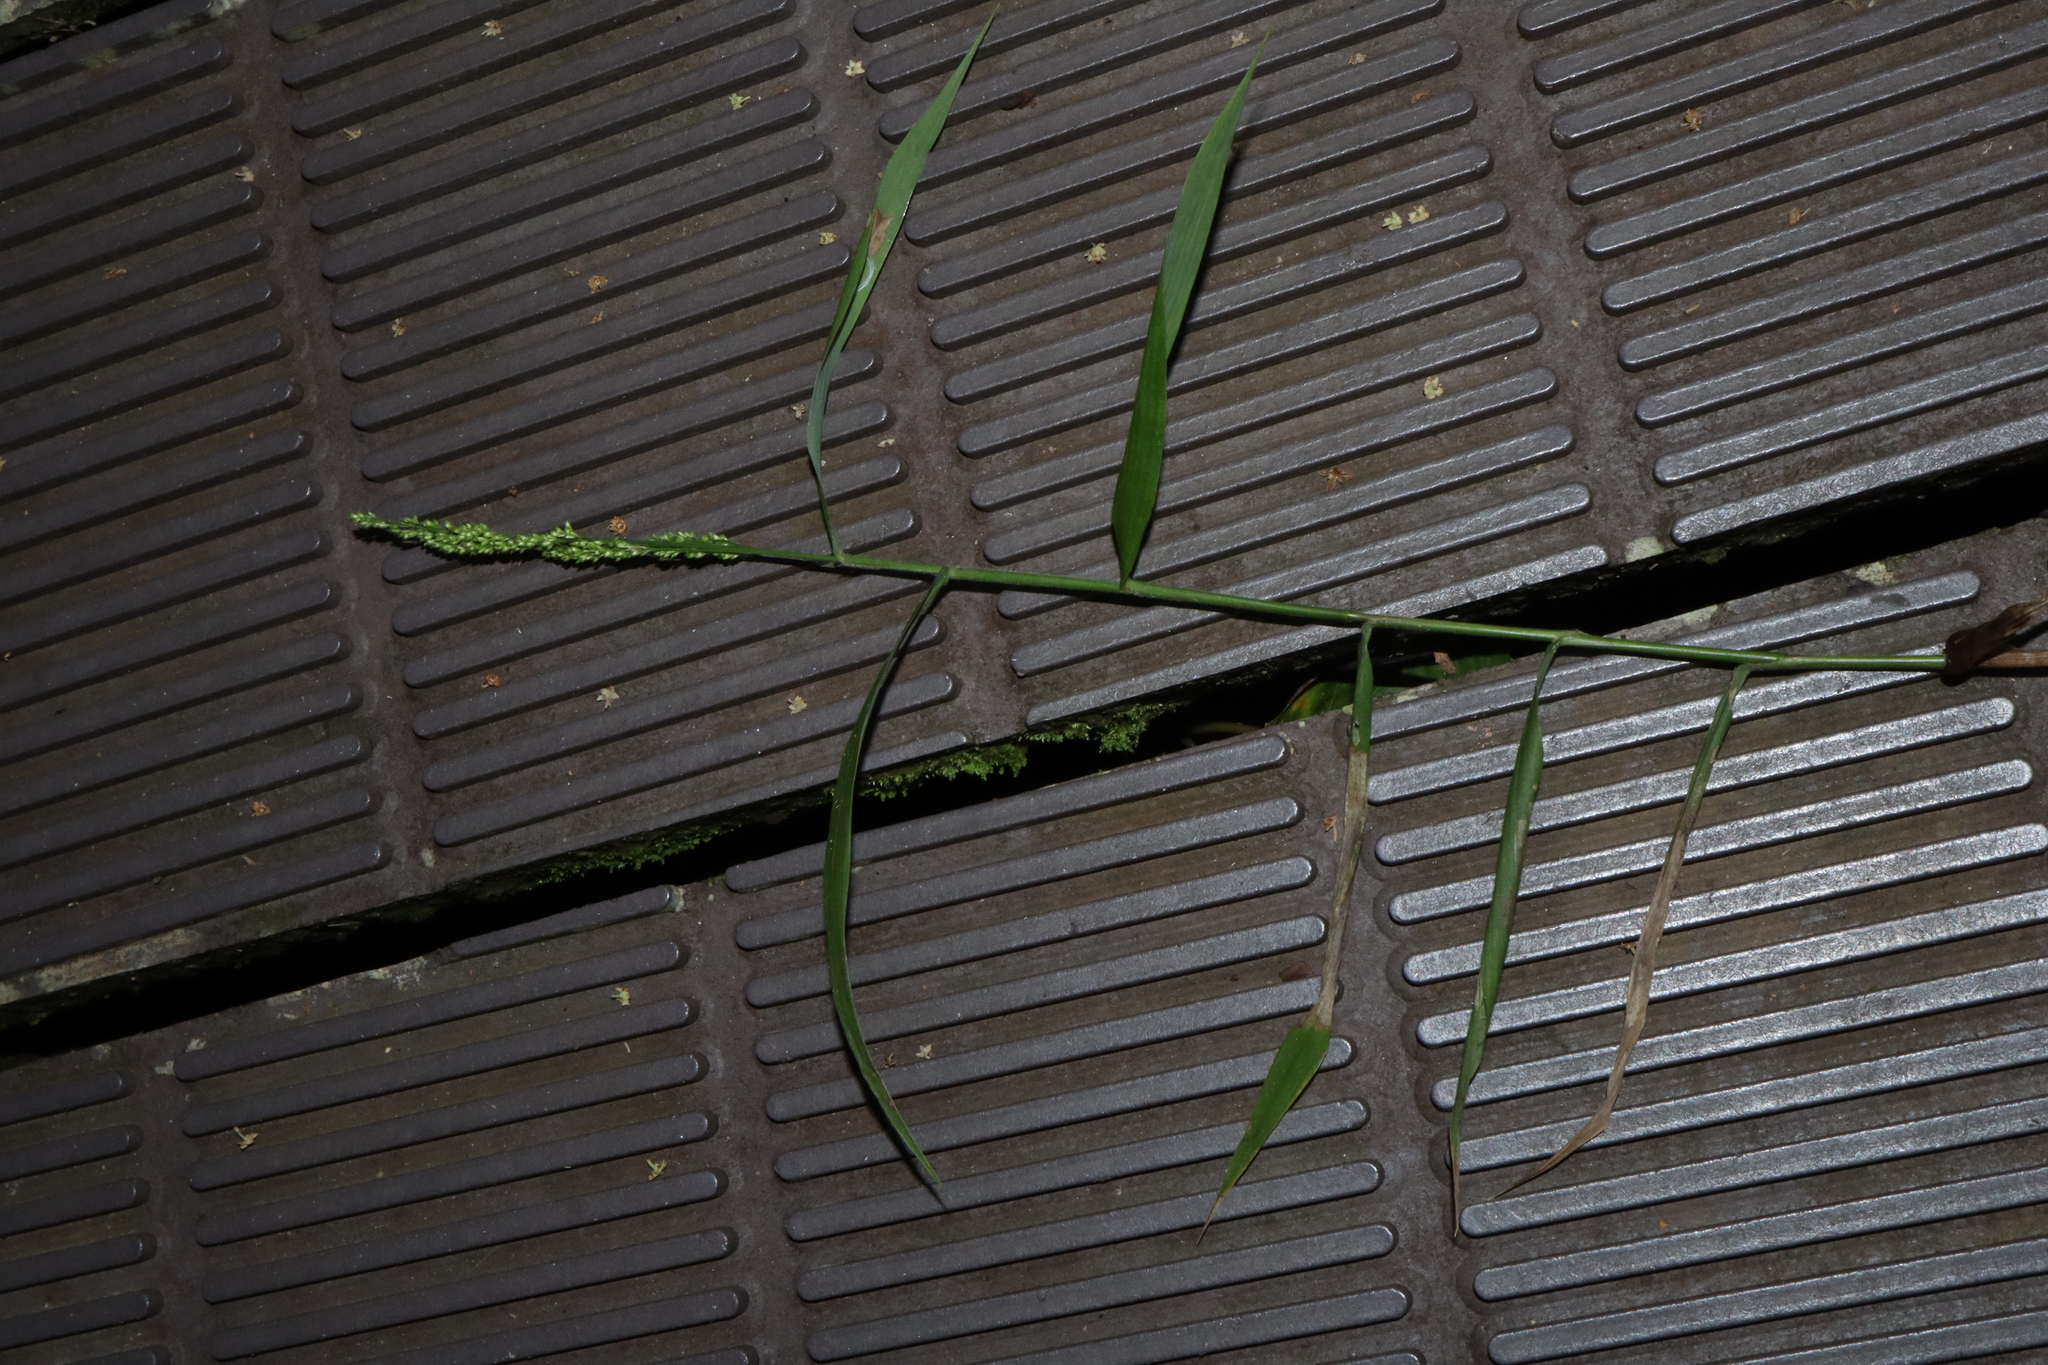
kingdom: Plantae
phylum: Tracheophyta
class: Liliopsida
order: Poales
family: Poaceae
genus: Cyrtococcum
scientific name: Cyrtococcum oxyphyllum
